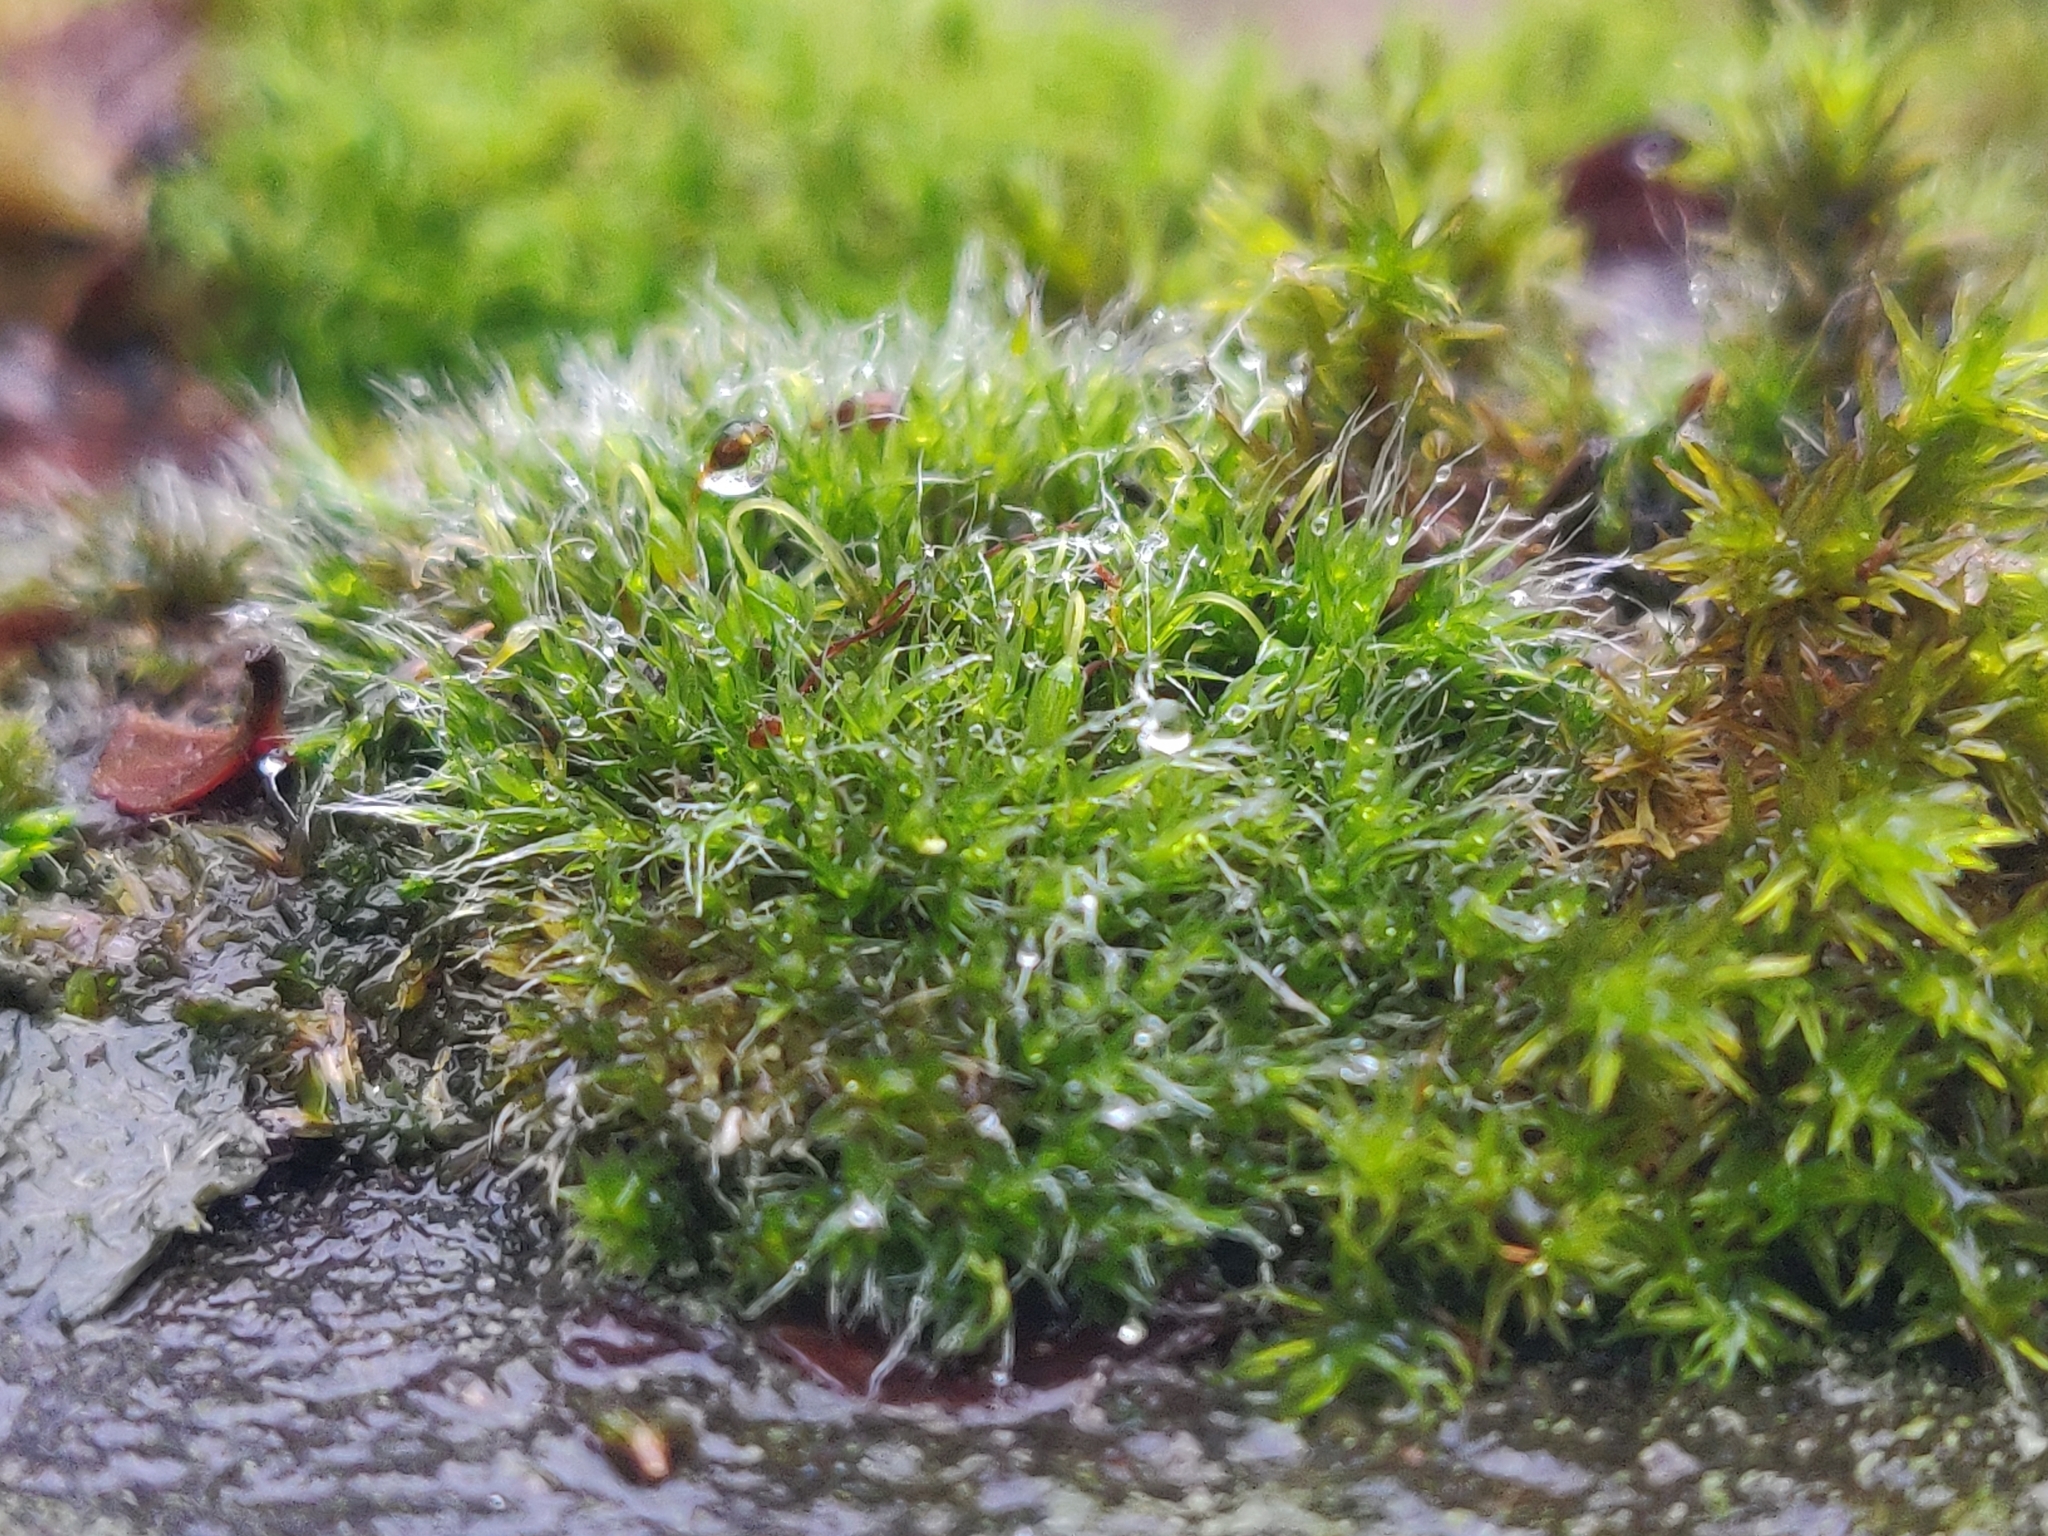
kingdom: Plantae
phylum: Bryophyta
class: Bryopsida
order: Grimmiales
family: Grimmiaceae
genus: Grimmia
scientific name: Grimmia pulvinata
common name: Grey-cushioned grimmia
